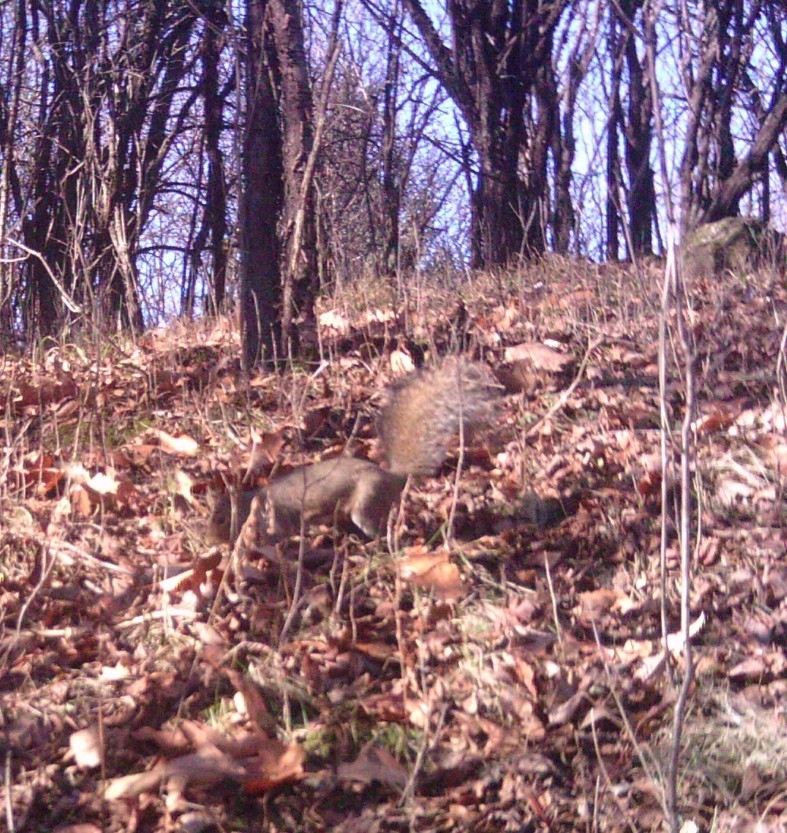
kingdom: Animalia
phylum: Chordata
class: Mammalia
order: Rodentia
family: Sciuridae
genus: Sciurus
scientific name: Sciurus carolinensis
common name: Eastern gray squirrel
